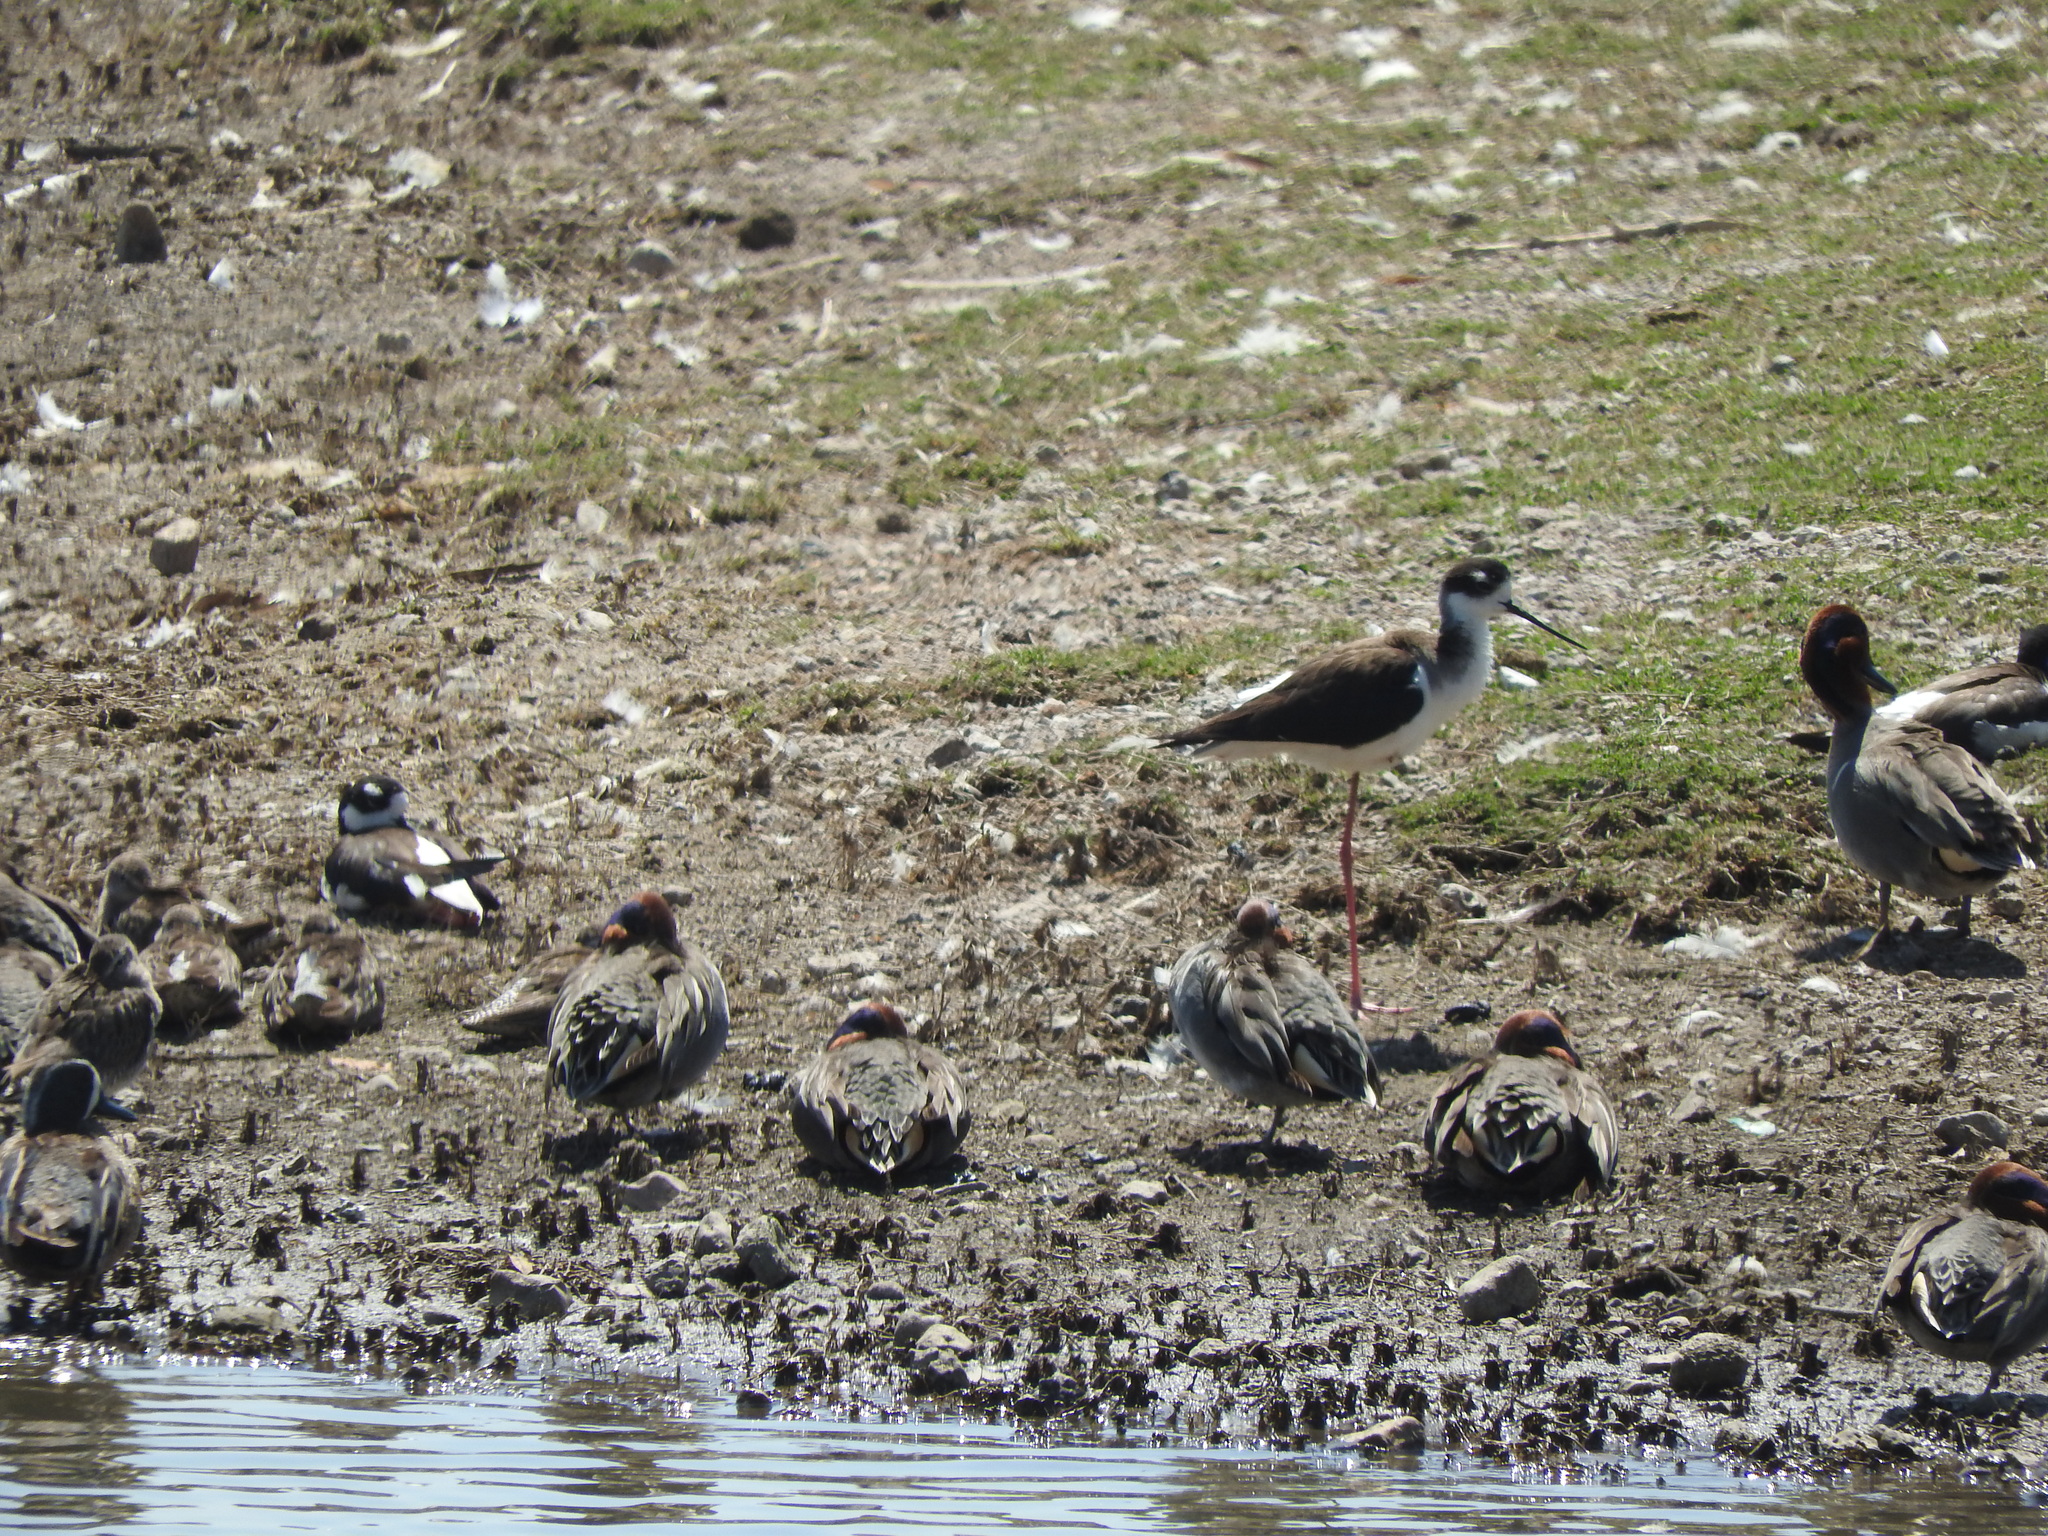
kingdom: Animalia
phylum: Chordata
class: Aves
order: Charadriiformes
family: Recurvirostridae
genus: Himantopus
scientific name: Himantopus mexicanus
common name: Black-necked stilt
